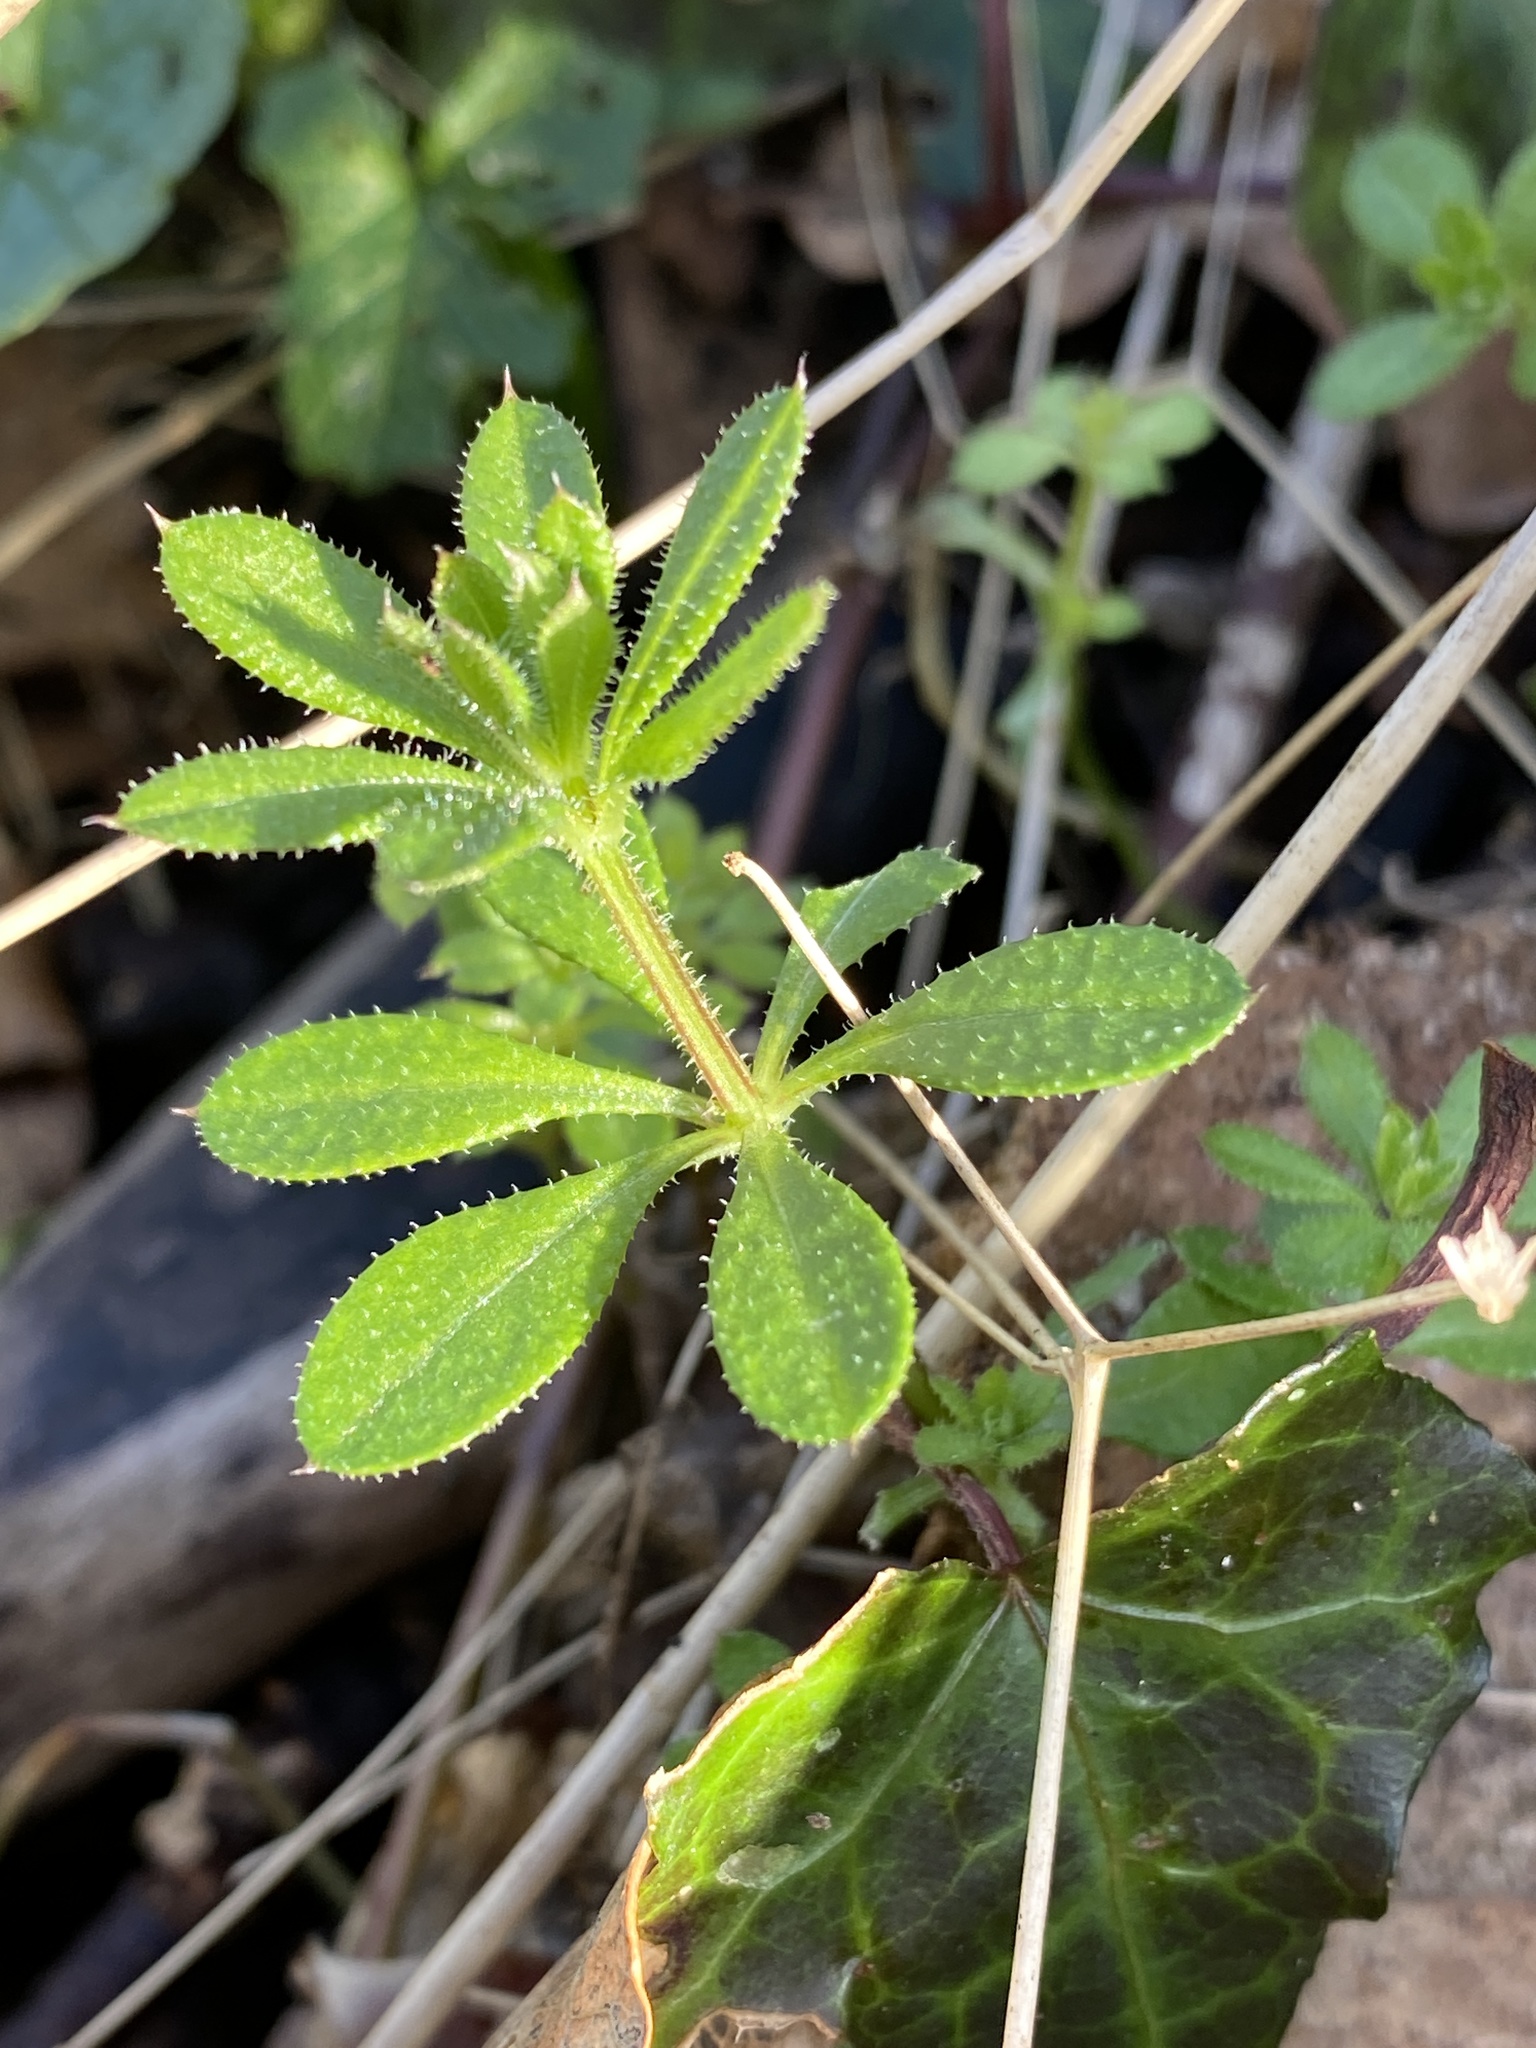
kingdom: Plantae
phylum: Tracheophyta
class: Magnoliopsida
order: Gentianales
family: Rubiaceae
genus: Galium
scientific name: Galium aparine
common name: Cleavers
